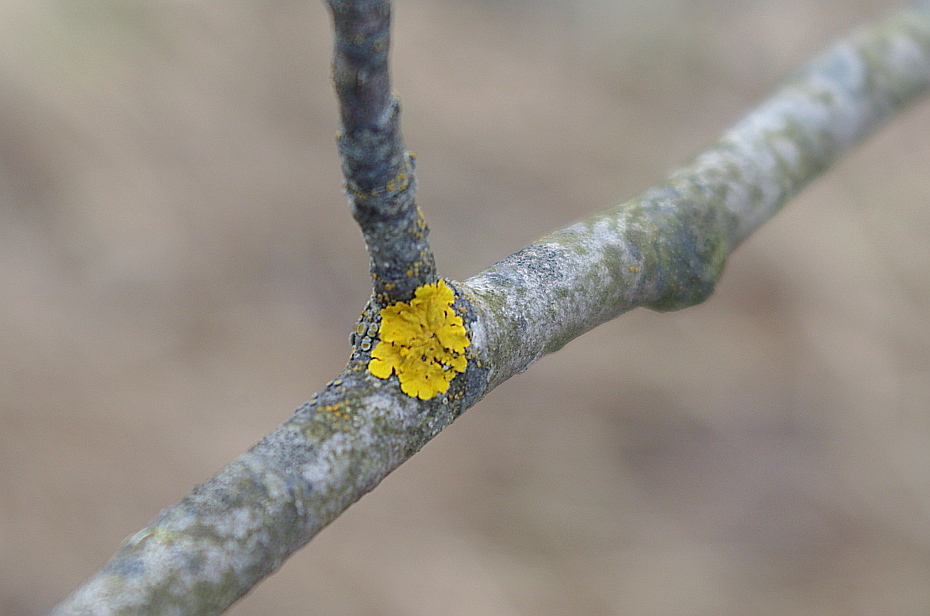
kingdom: Fungi
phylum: Ascomycota
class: Lecanoromycetes
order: Teloschistales
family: Teloschistaceae
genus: Xanthoria
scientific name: Xanthoria parietina
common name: Common orange lichen
